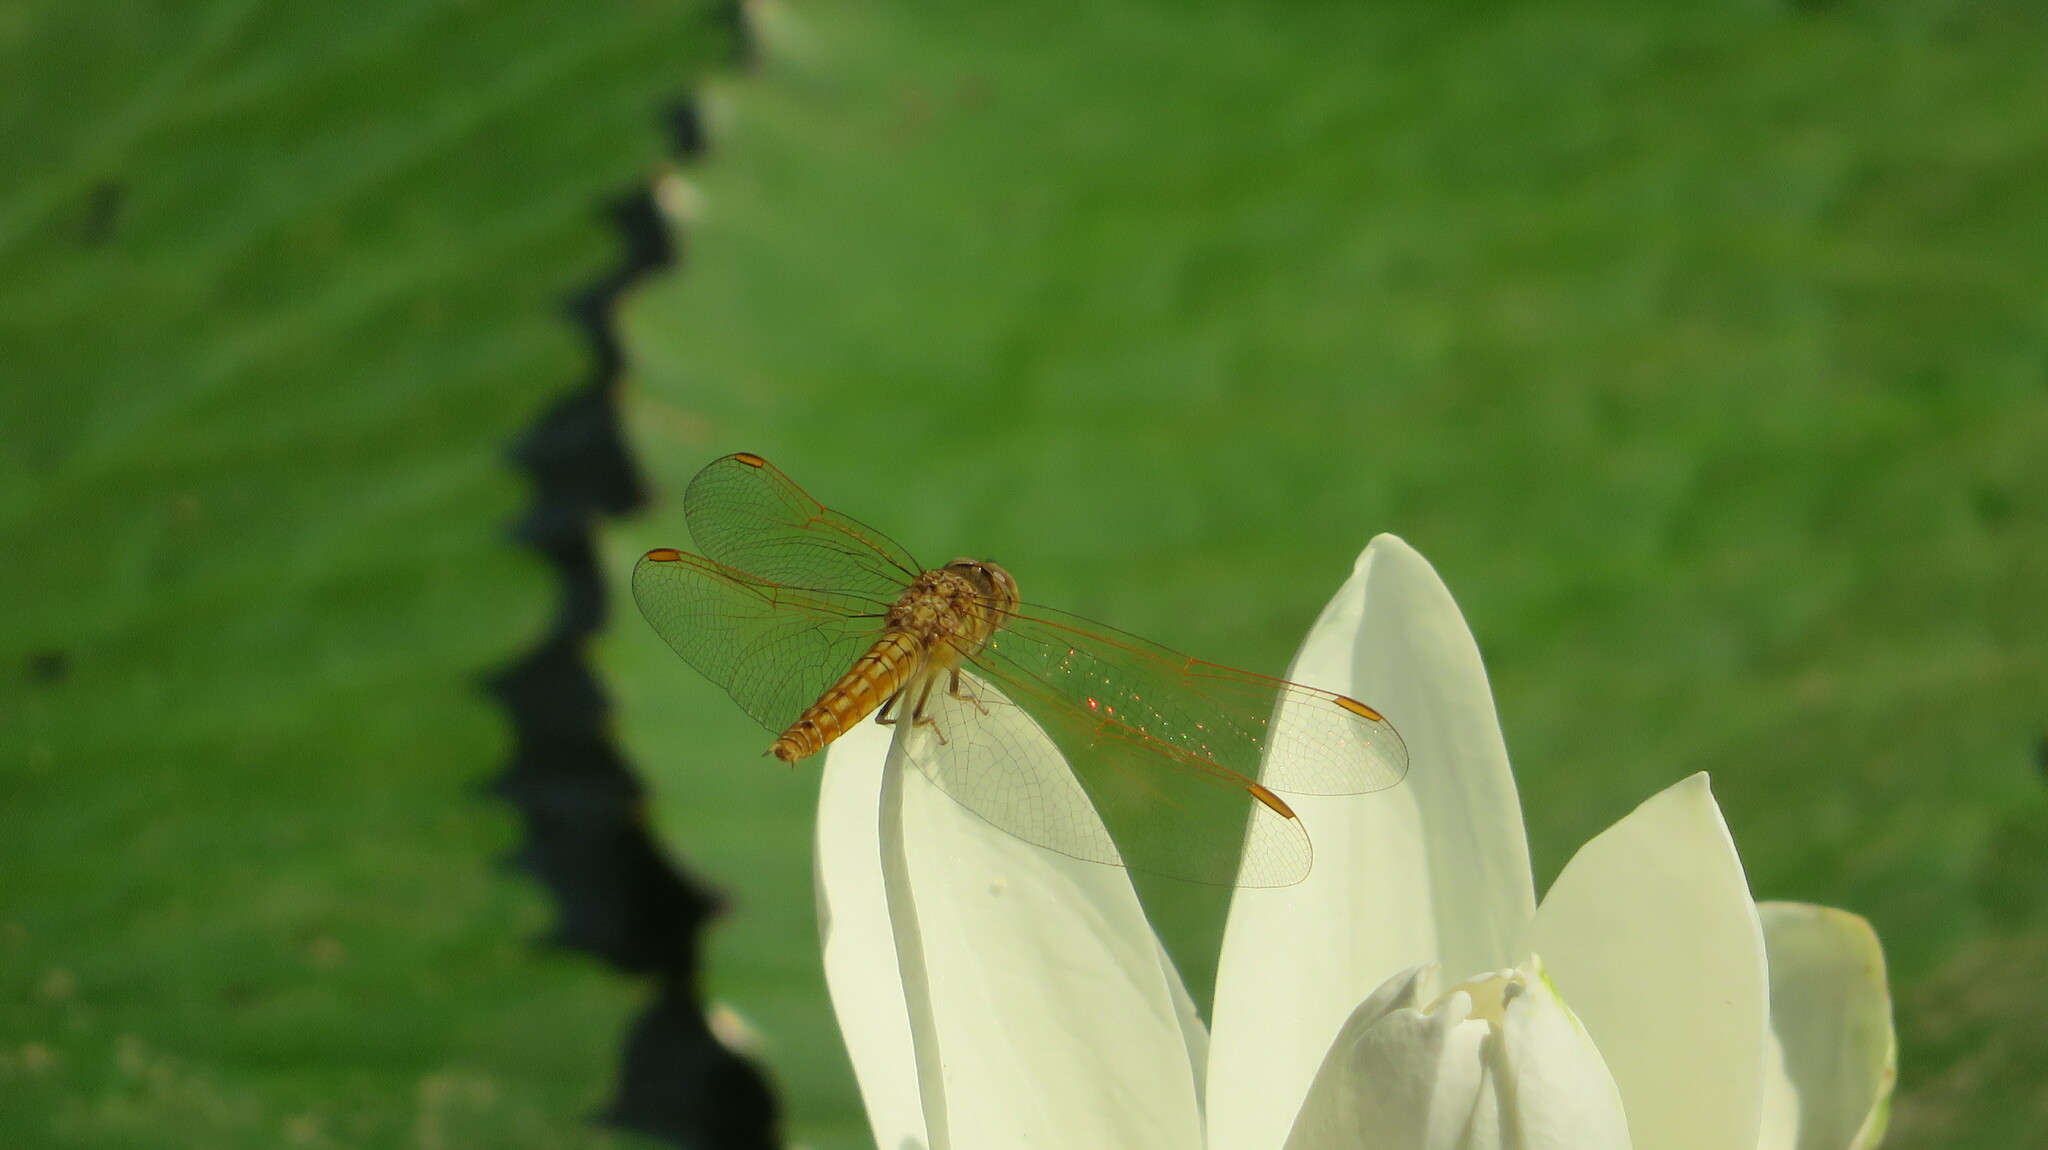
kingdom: Animalia
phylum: Arthropoda
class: Insecta
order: Odonata
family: Libellulidae
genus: Brachythemis
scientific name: Brachythemis contaminata
